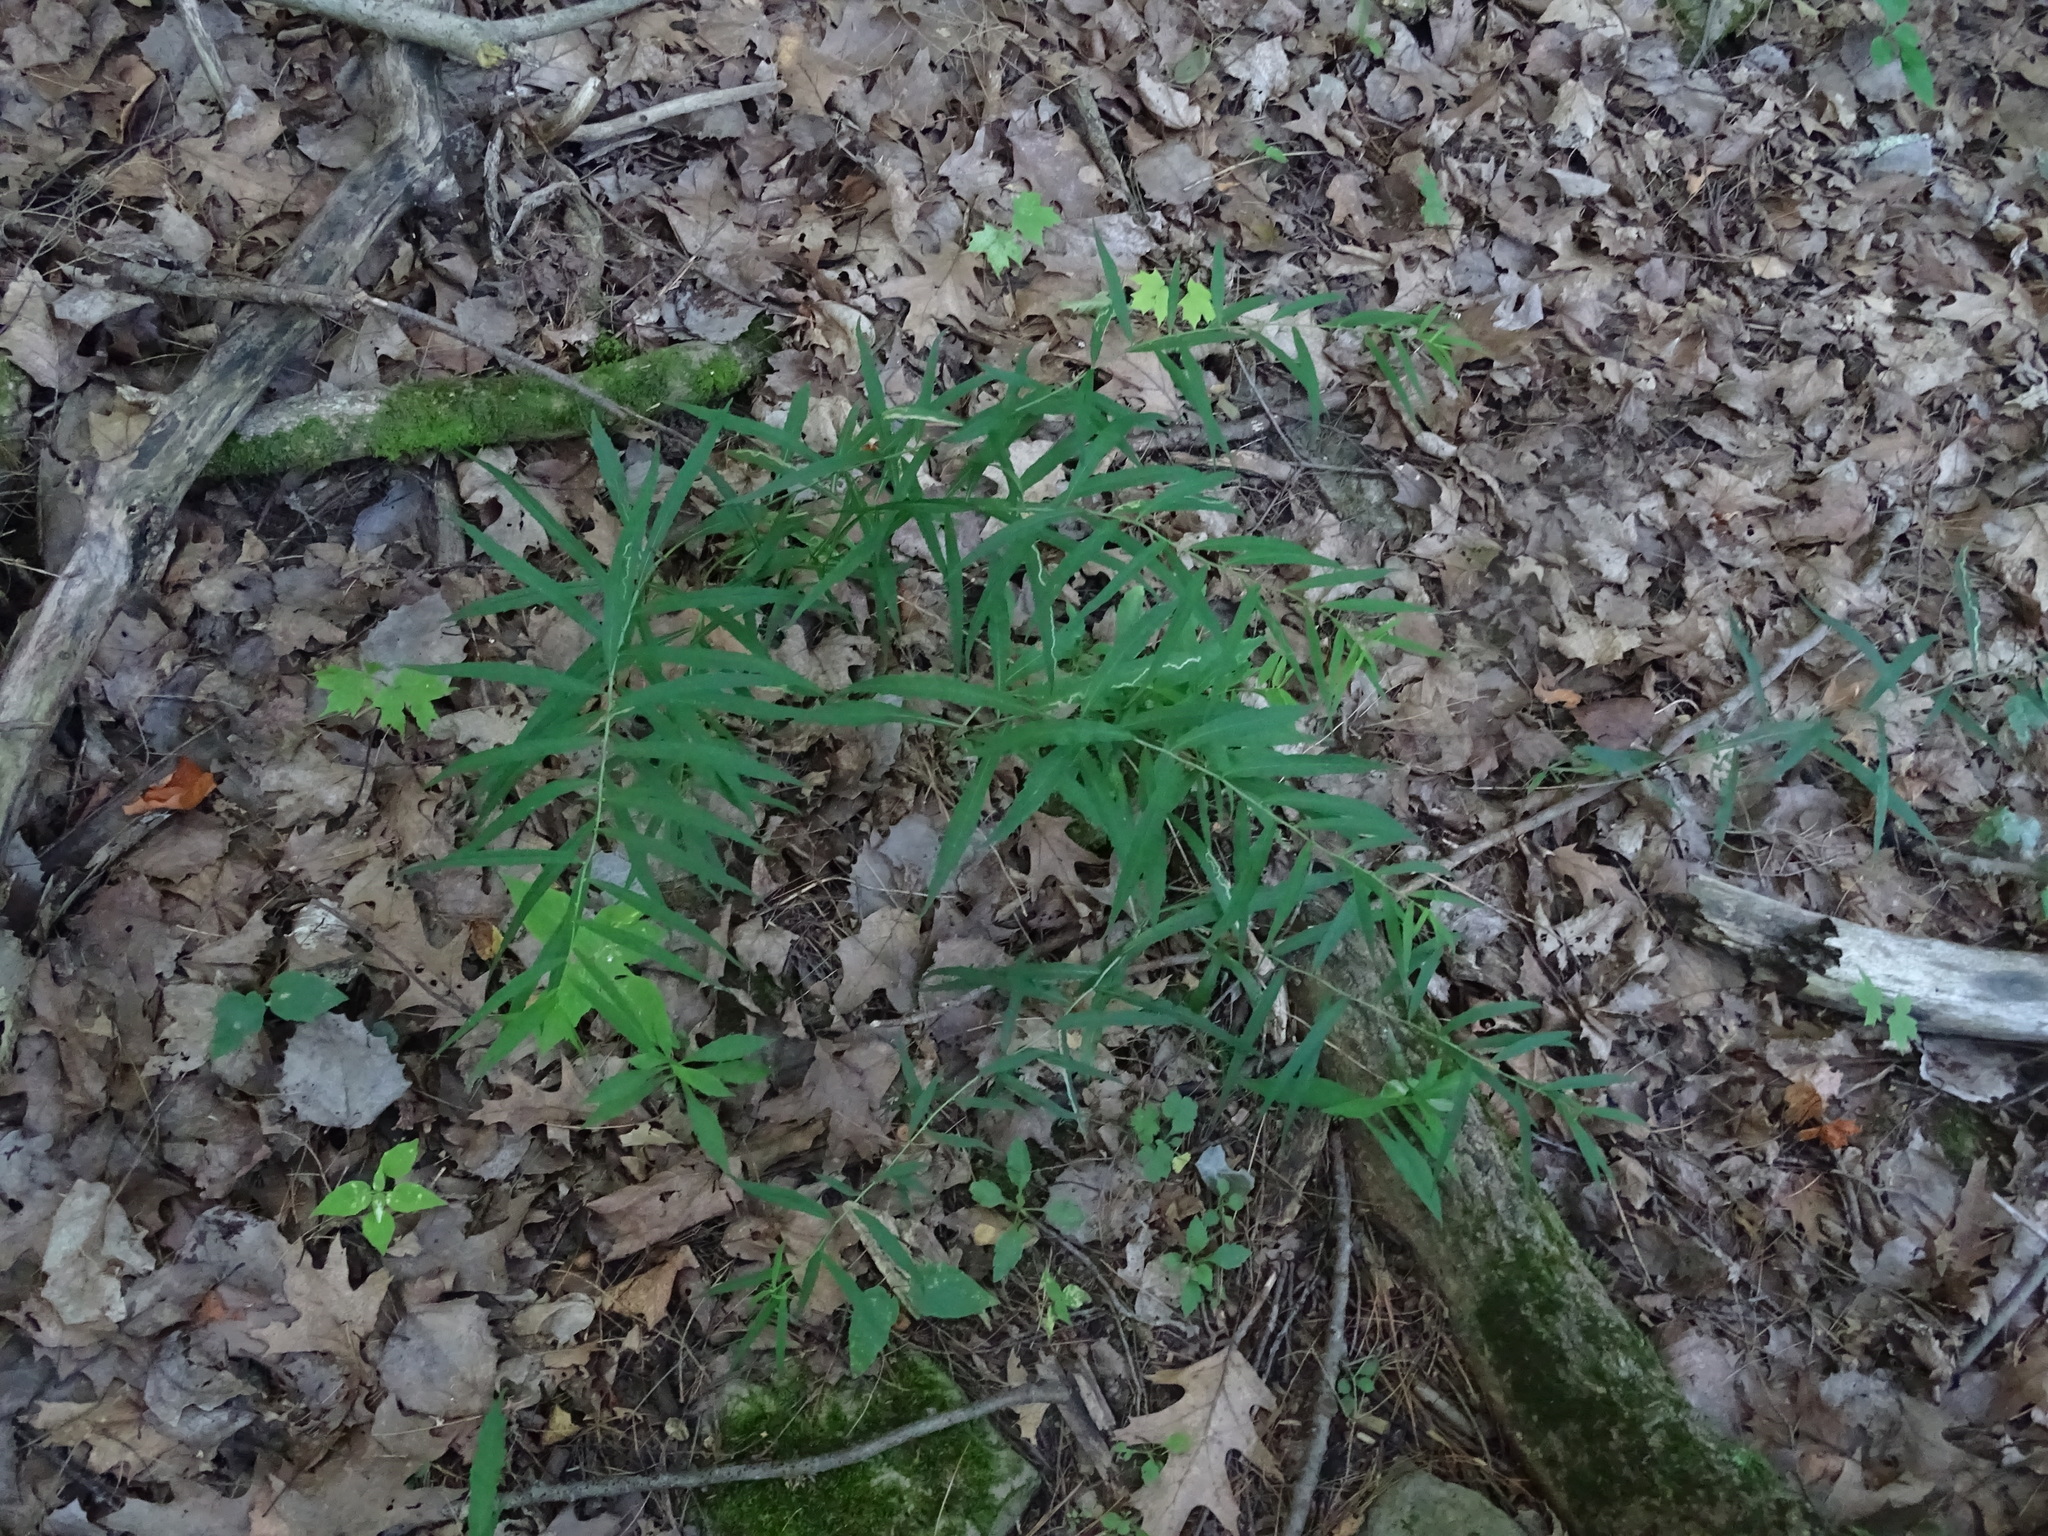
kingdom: Plantae
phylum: Tracheophyta
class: Magnoliopsida
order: Asterales
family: Asteraceae
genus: Solidago
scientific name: Solidago caesia
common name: Woodland goldenrod
